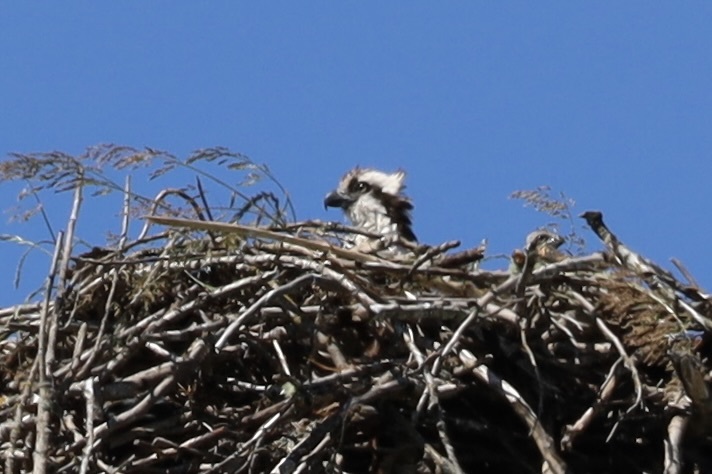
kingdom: Animalia
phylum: Chordata
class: Aves
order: Accipitriformes
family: Pandionidae
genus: Pandion
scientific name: Pandion haliaetus
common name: Osprey
